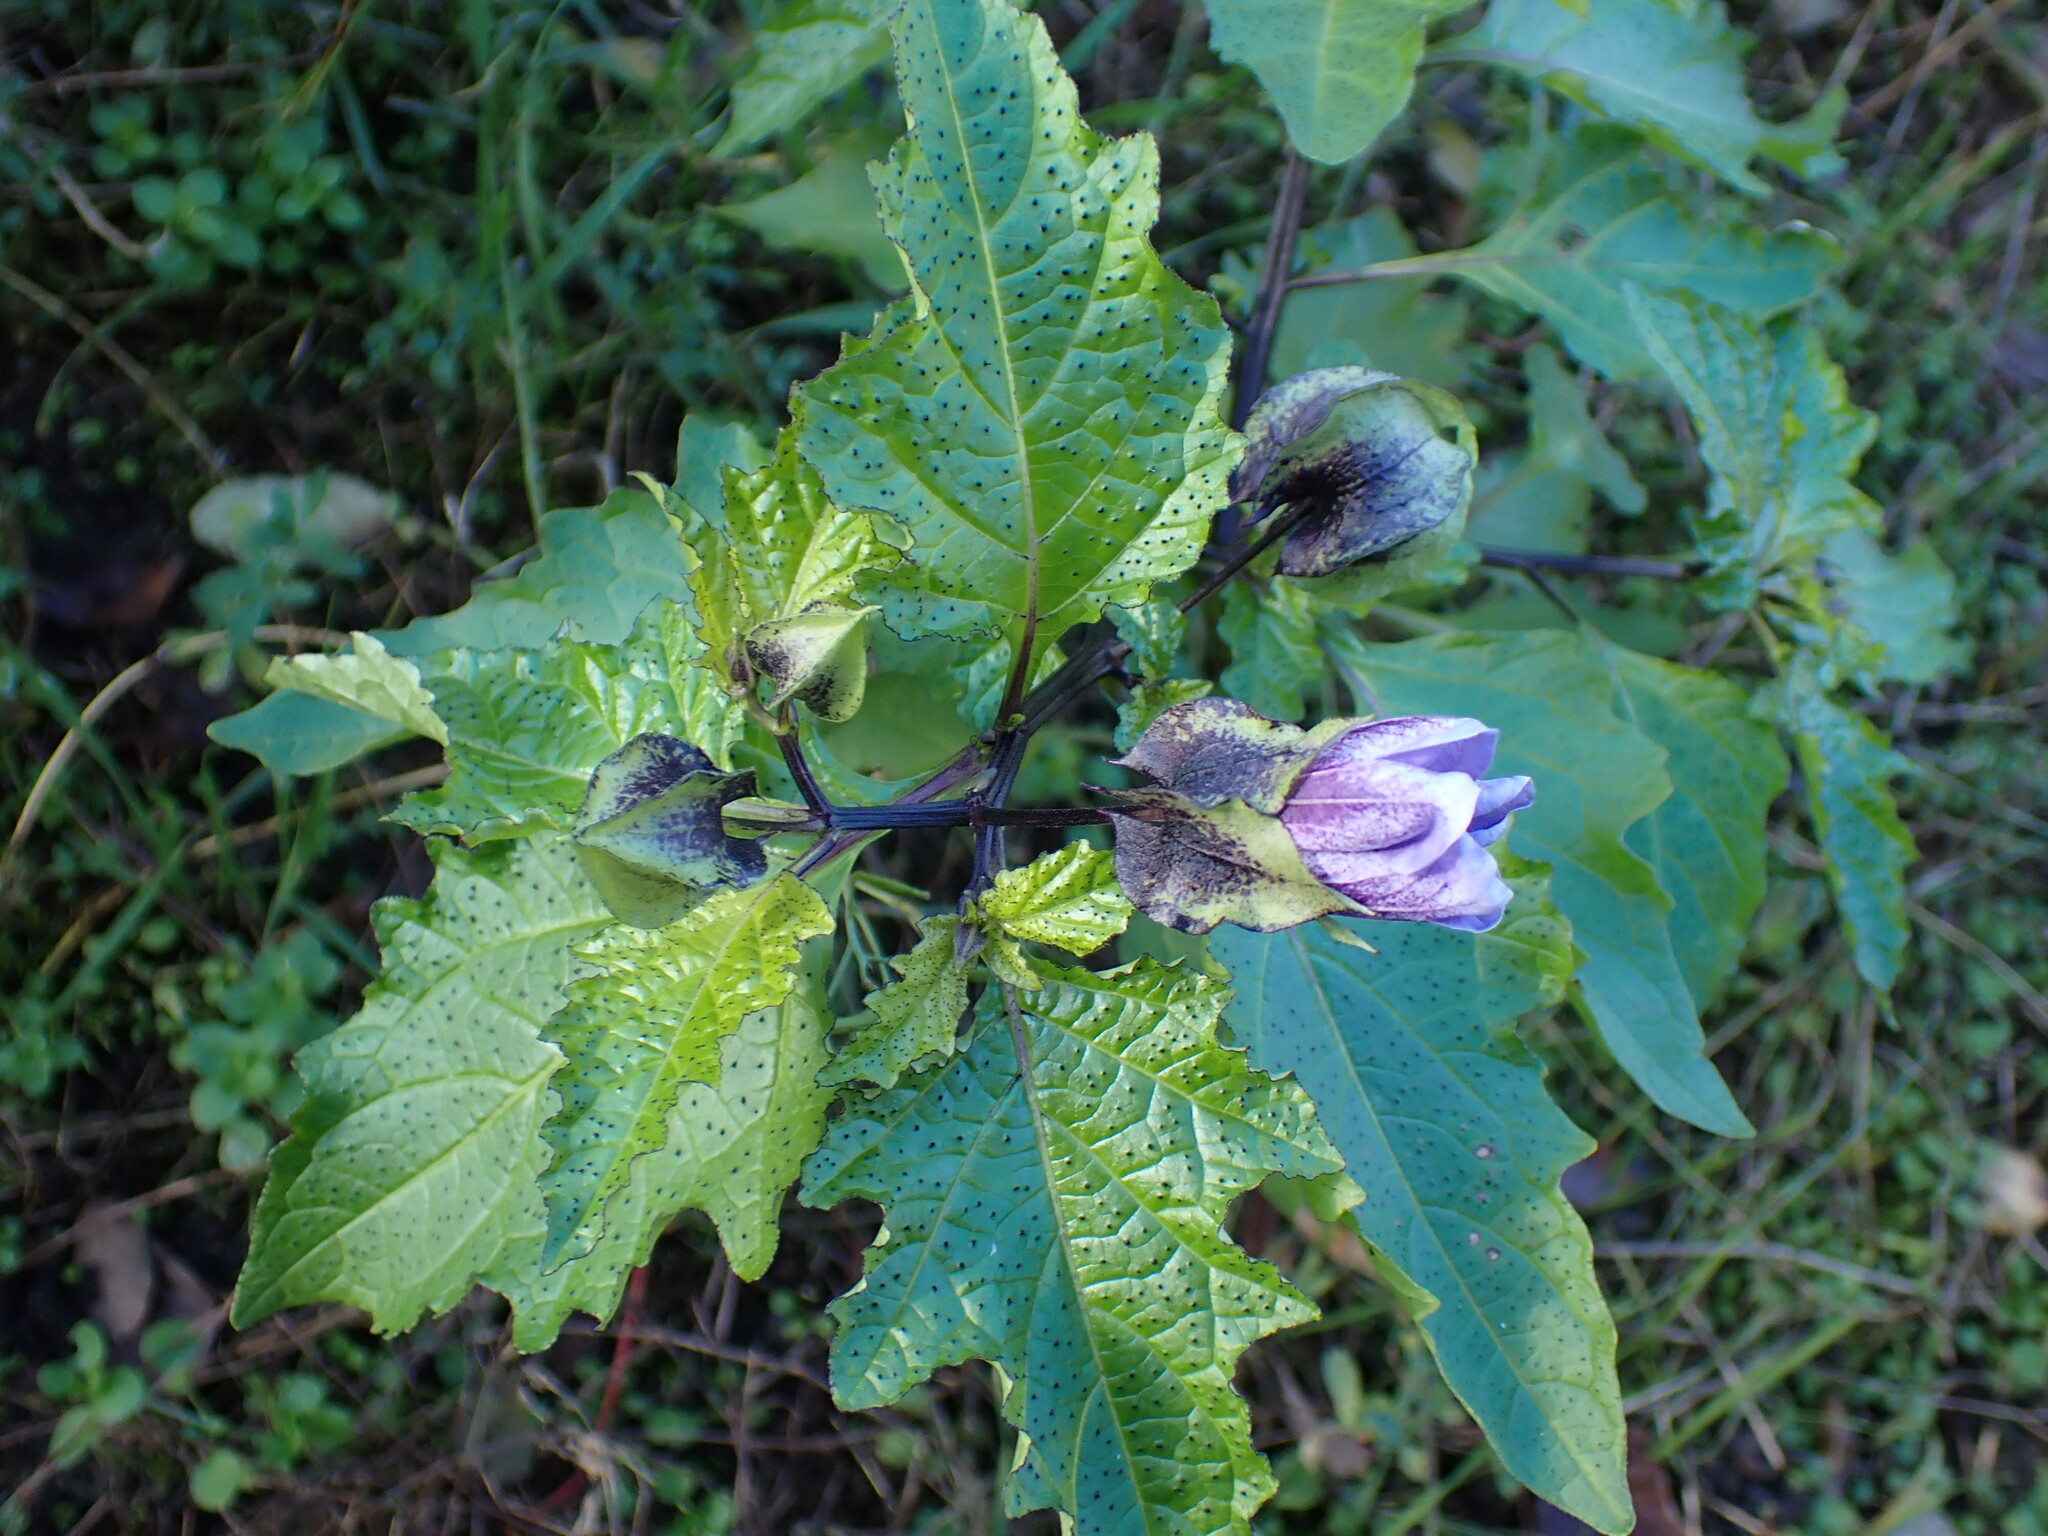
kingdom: Plantae
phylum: Tracheophyta
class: Magnoliopsida
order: Solanales
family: Solanaceae
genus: Nicandra
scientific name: Nicandra physalodes
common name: Apple-of-peru
